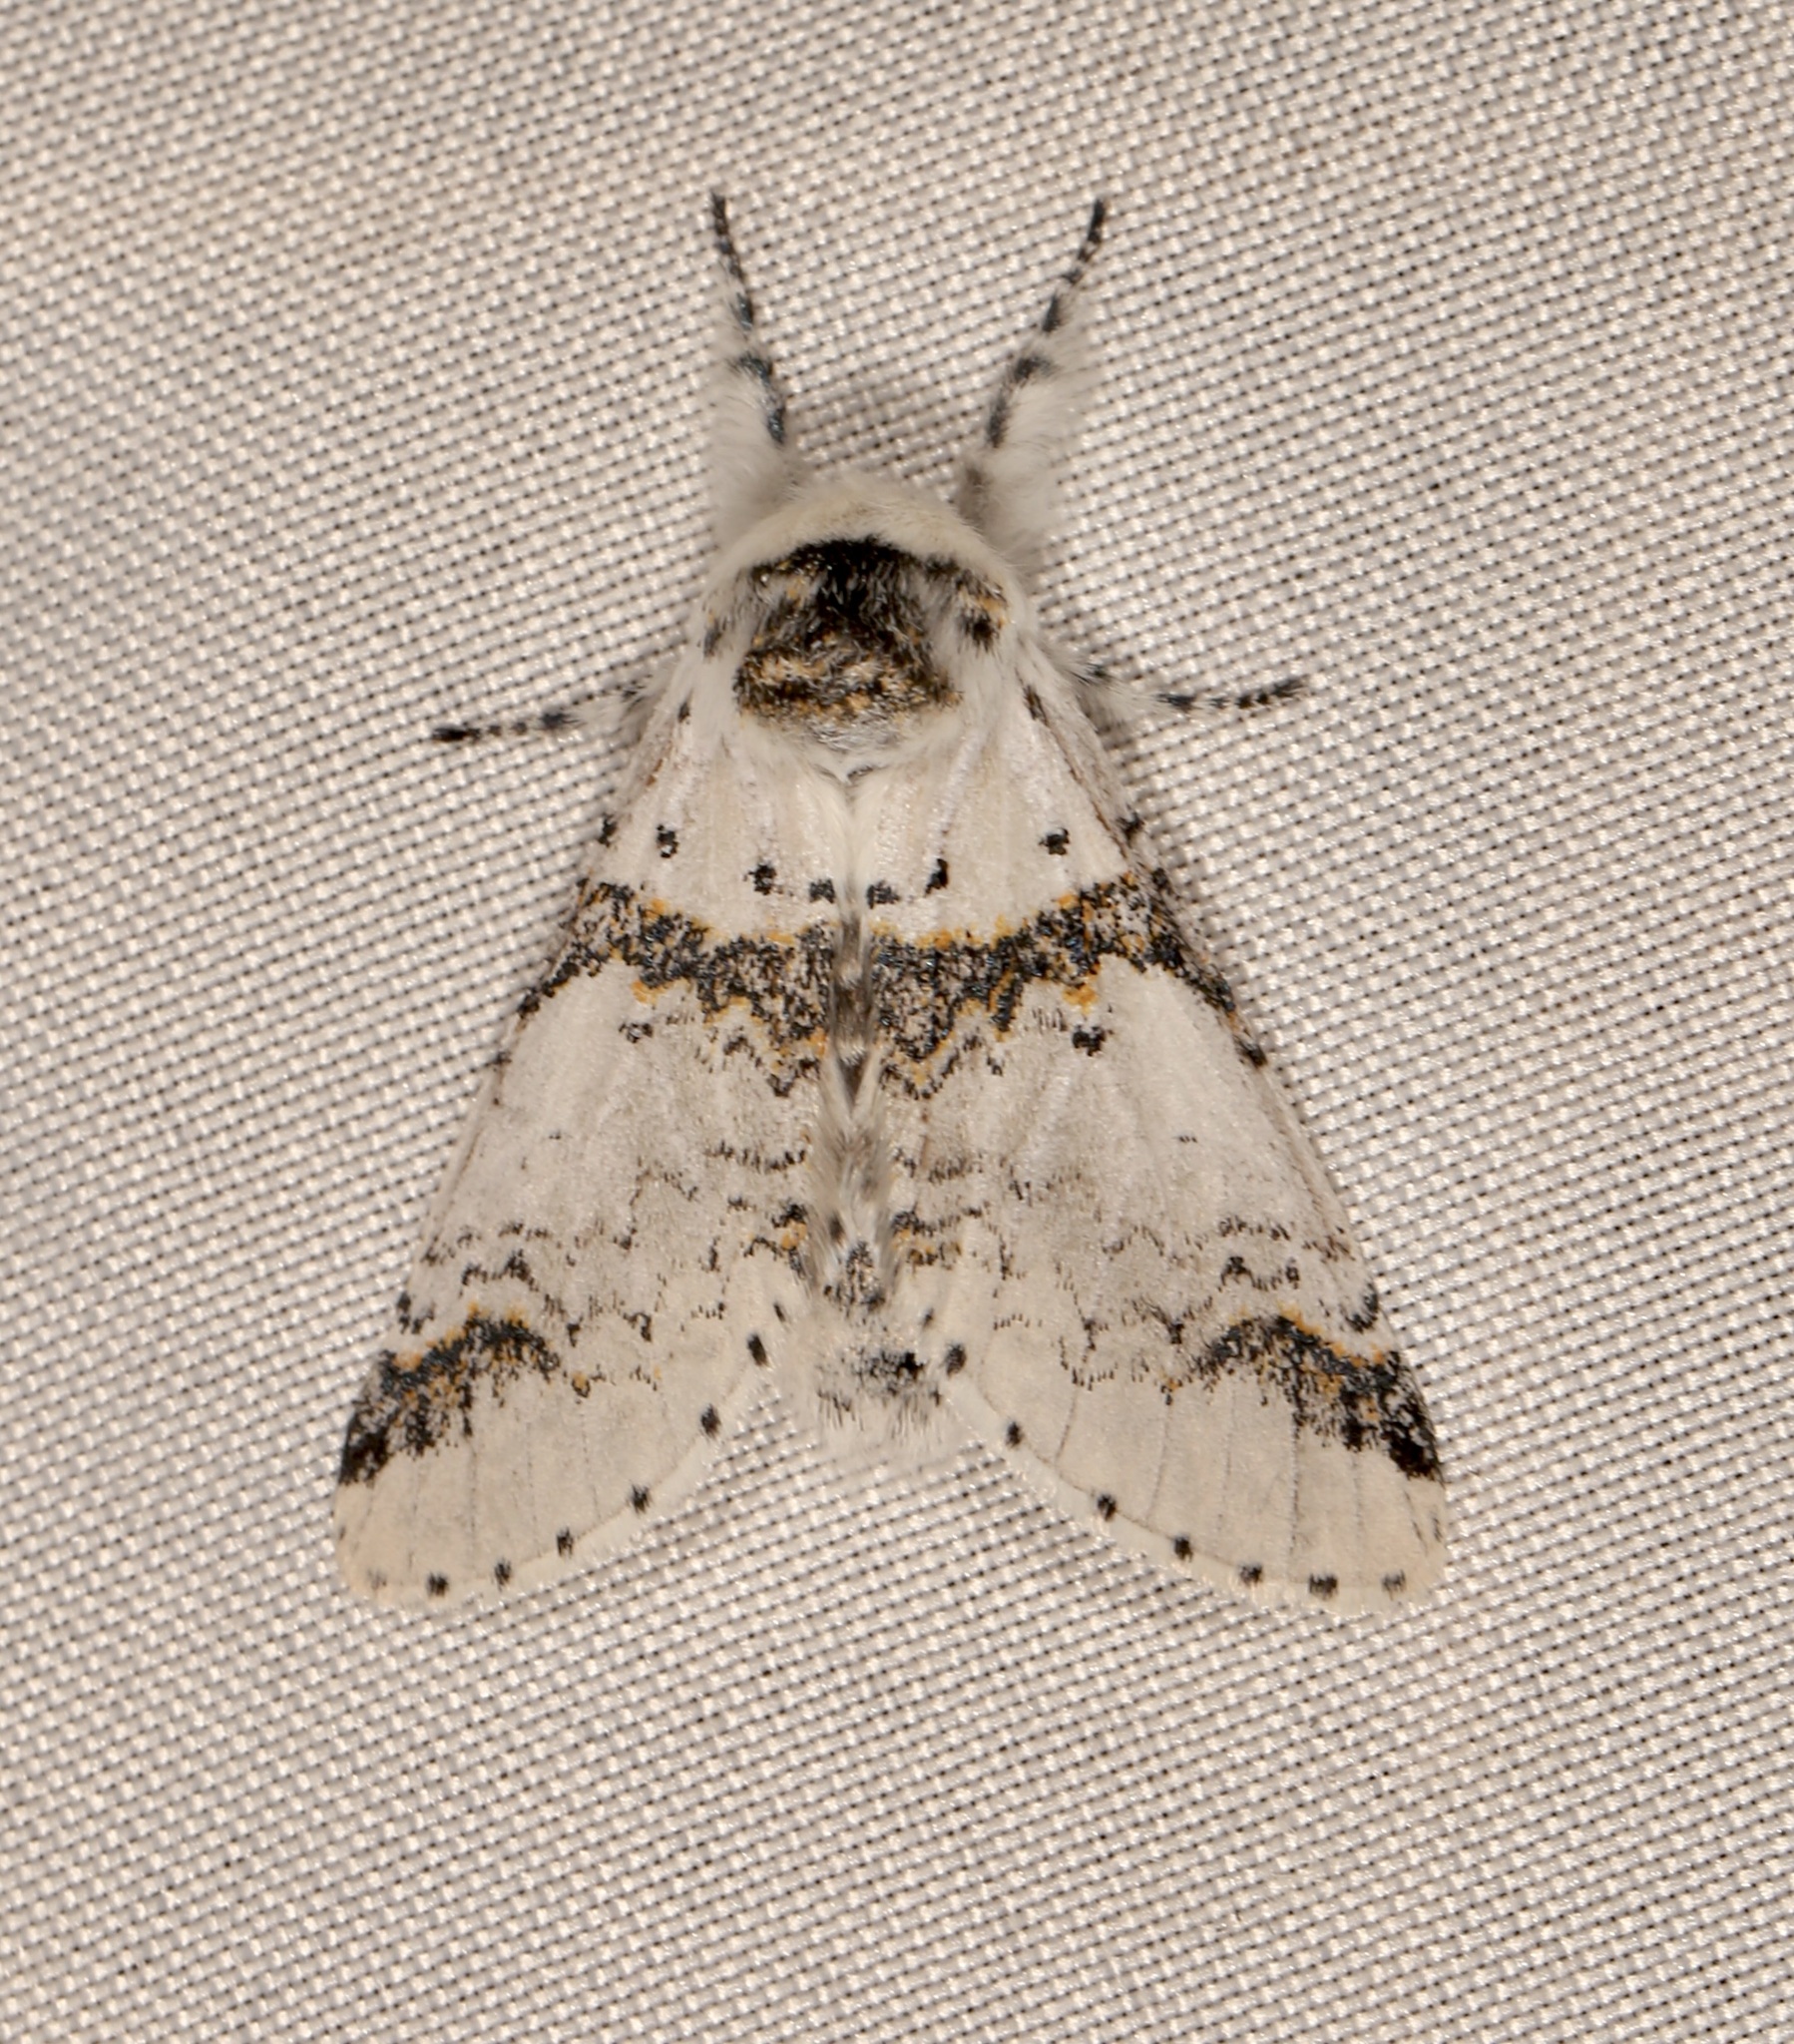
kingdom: Animalia
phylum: Arthropoda
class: Insecta
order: Lepidoptera
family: Notodontidae
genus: Furcula
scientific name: Furcula scolopendrina
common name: Zigzag furcula moth
